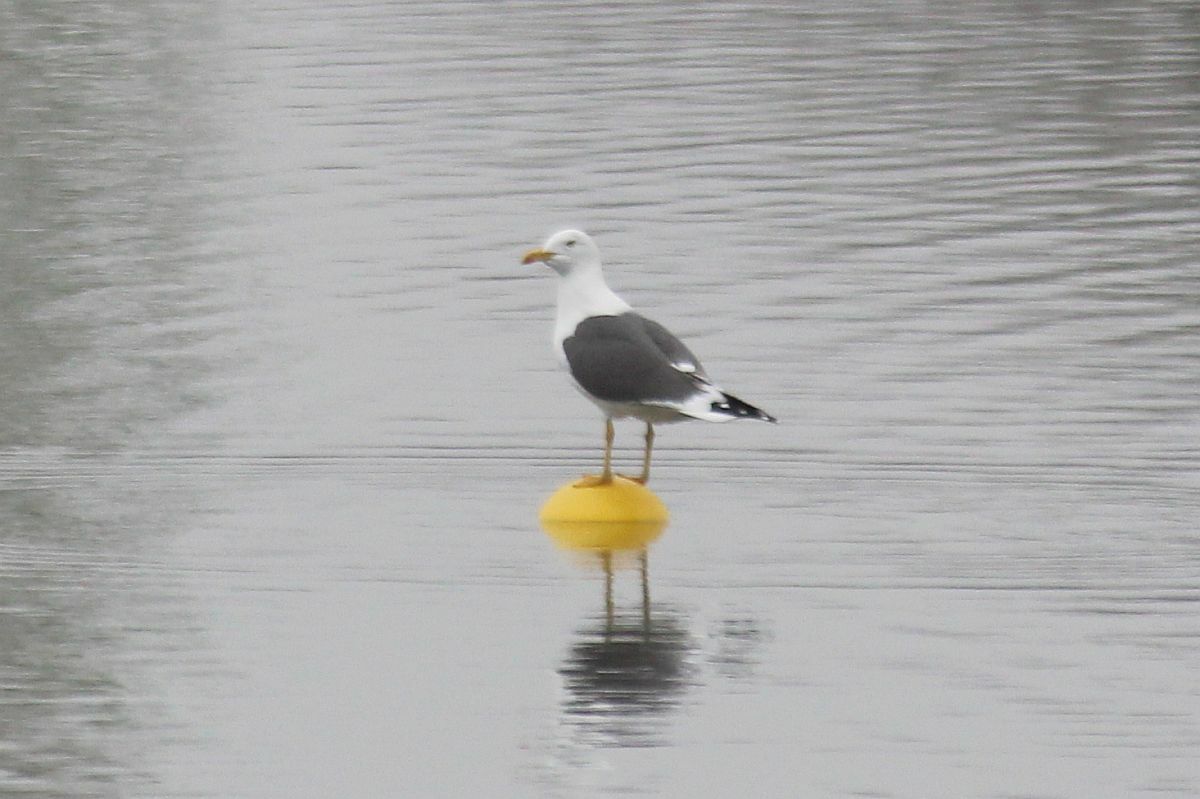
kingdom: Animalia
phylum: Chordata
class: Aves
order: Charadriiformes
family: Laridae
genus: Larus
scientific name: Larus fuscus
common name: Lesser black-backed gull
